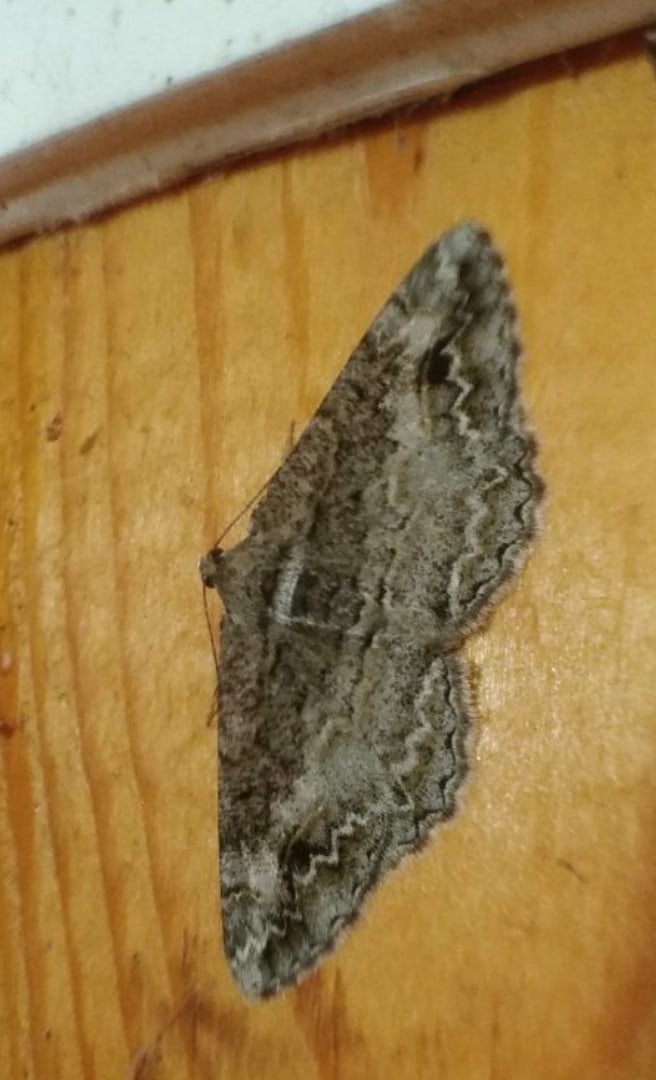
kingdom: Animalia
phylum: Arthropoda
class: Insecta
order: Lepidoptera
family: Geometridae
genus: Alcis
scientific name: Alcis repandata
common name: Mottled beauty
